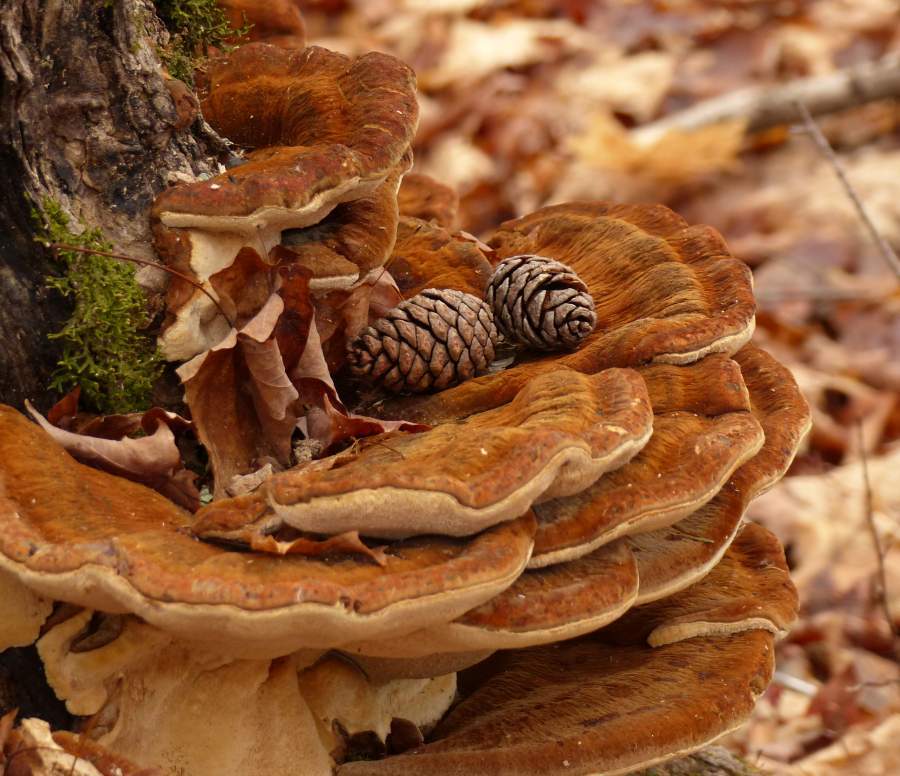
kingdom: Fungi
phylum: Basidiomycota
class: Agaricomycetes
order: Polyporales
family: Ischnodermataceae
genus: Ischnoderma
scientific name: Ischnoderma resinosum
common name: Resinous polypore
